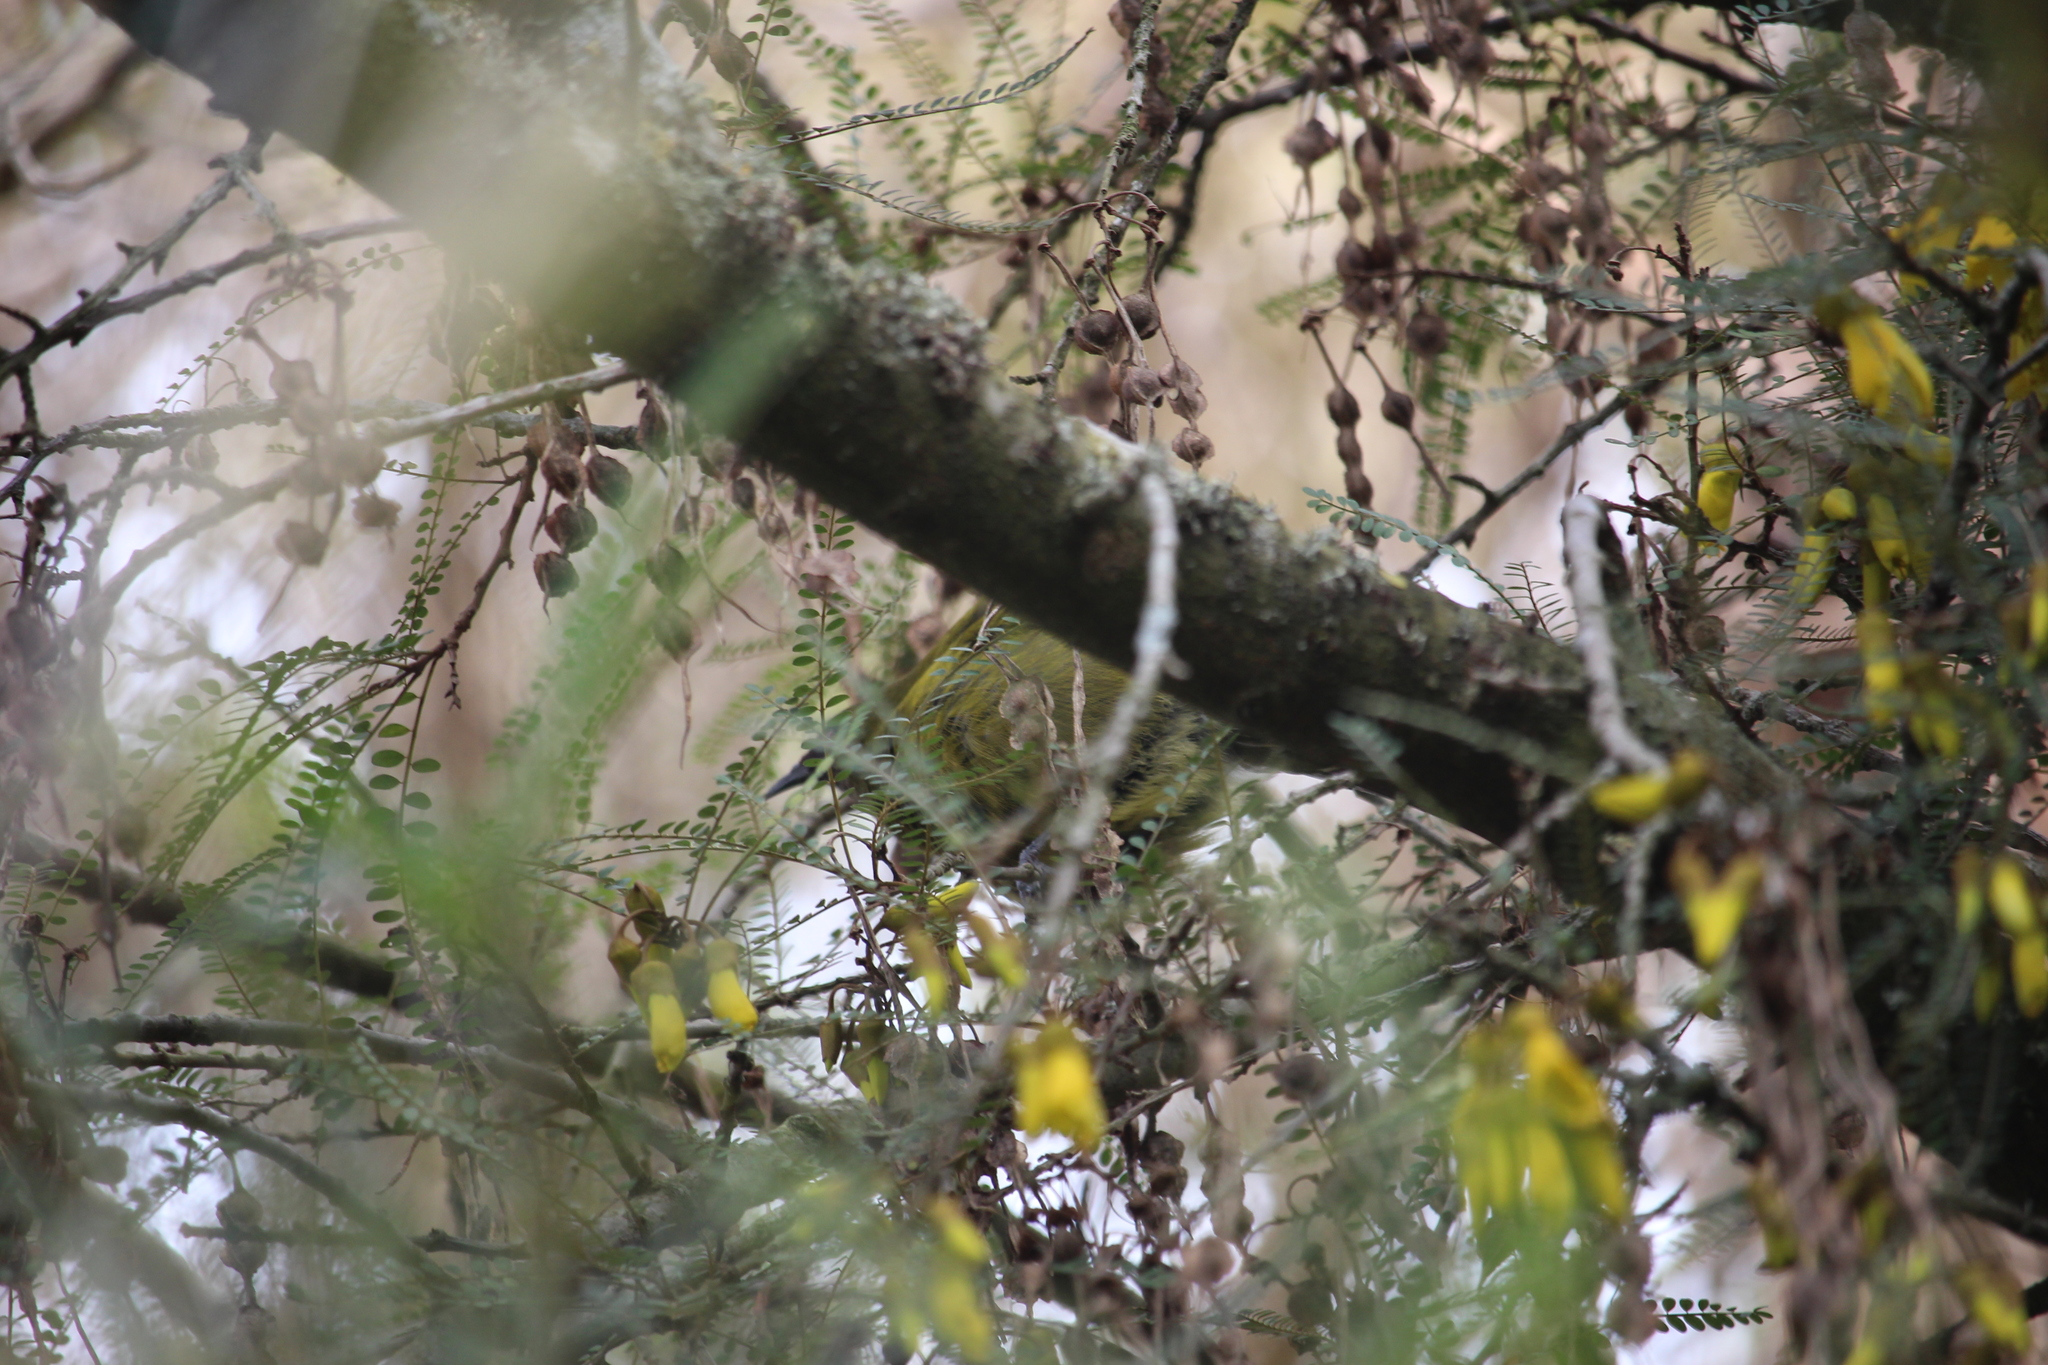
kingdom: Animalia
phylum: Chordata
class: Aves
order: Passeriformes
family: Meliphagidae
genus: Anthornis
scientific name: Anthornis melanura
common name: New zealand bellbird
